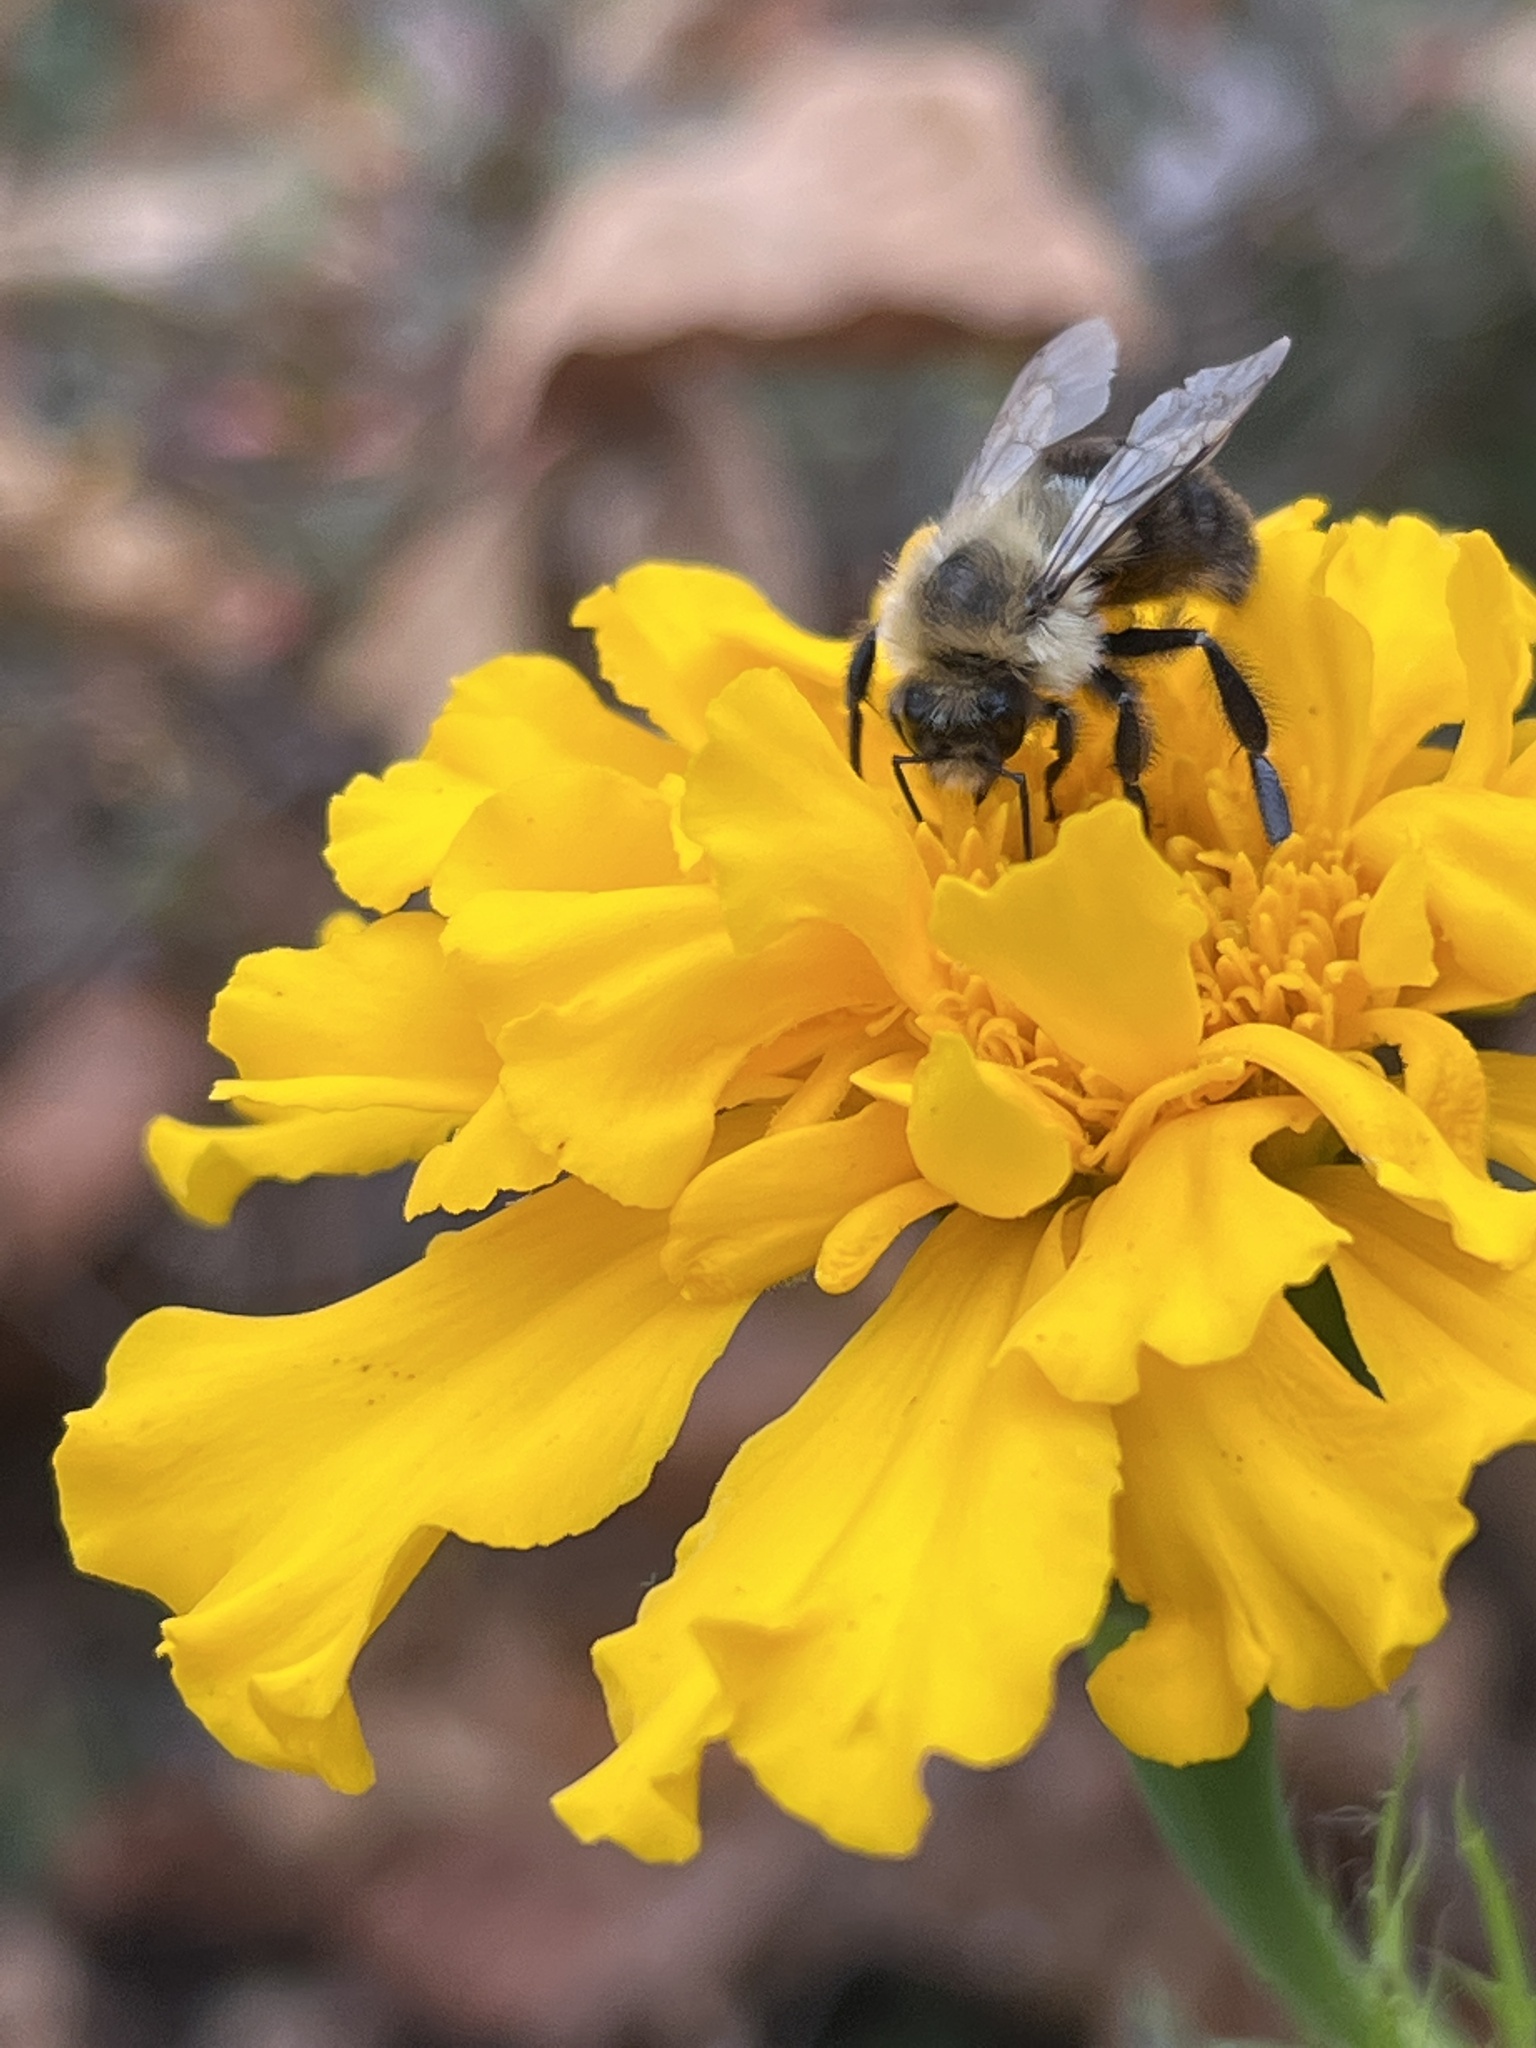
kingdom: Animalia
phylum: Arthropoda
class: Insecta
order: Hymenoptera
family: Apidae
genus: Bombus
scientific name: Bombus impatiens
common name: Common eastern bumble bee
